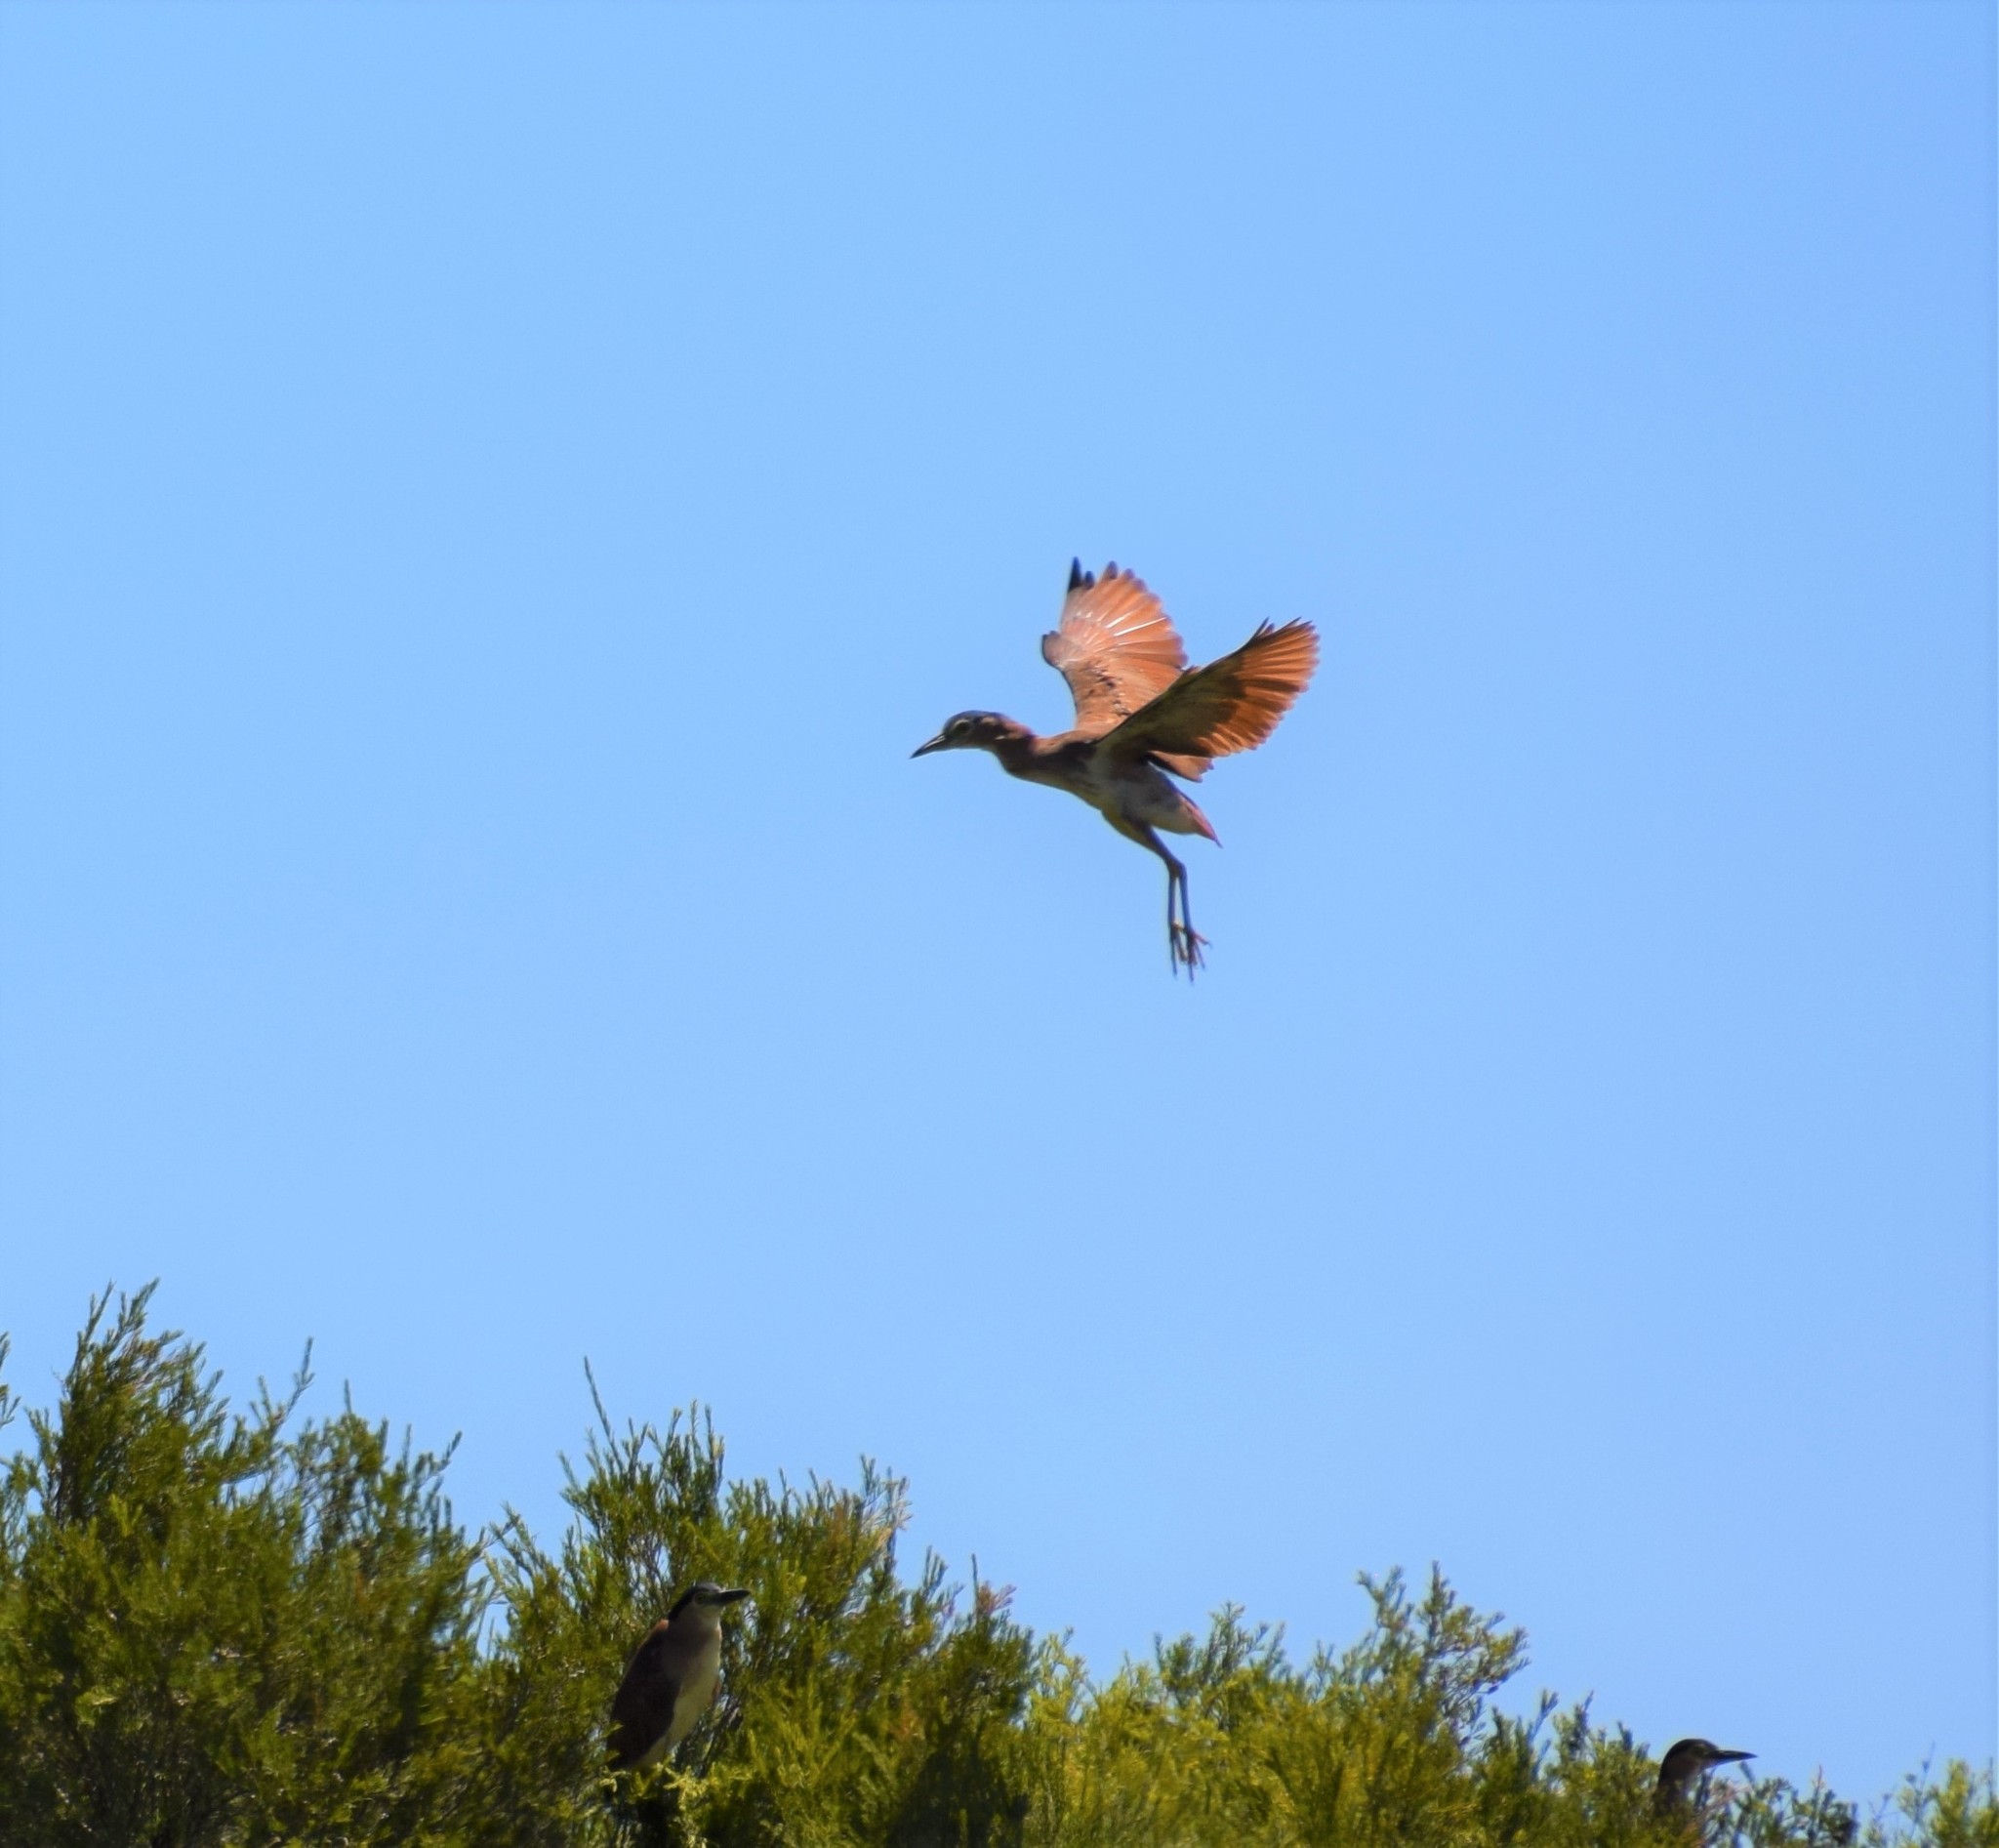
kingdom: Animalia
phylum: Chordata
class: Aves
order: Pelecaniformes
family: Ardeidae
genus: Nycticorax
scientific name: Nycticorax caledonicus
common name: Rufous night-heron
